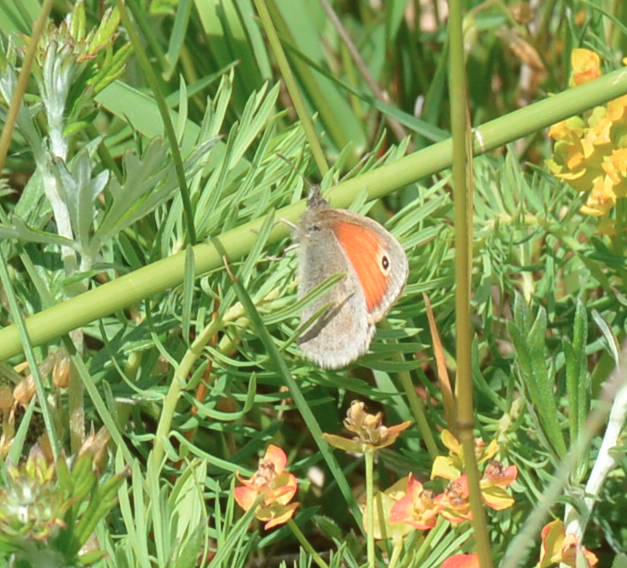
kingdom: Animalia
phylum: Arthropoda
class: Insecta
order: Lepidoptera
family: Nymphalidae
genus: Coenonympha
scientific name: Coenonympha pamphilus
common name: Small heath
